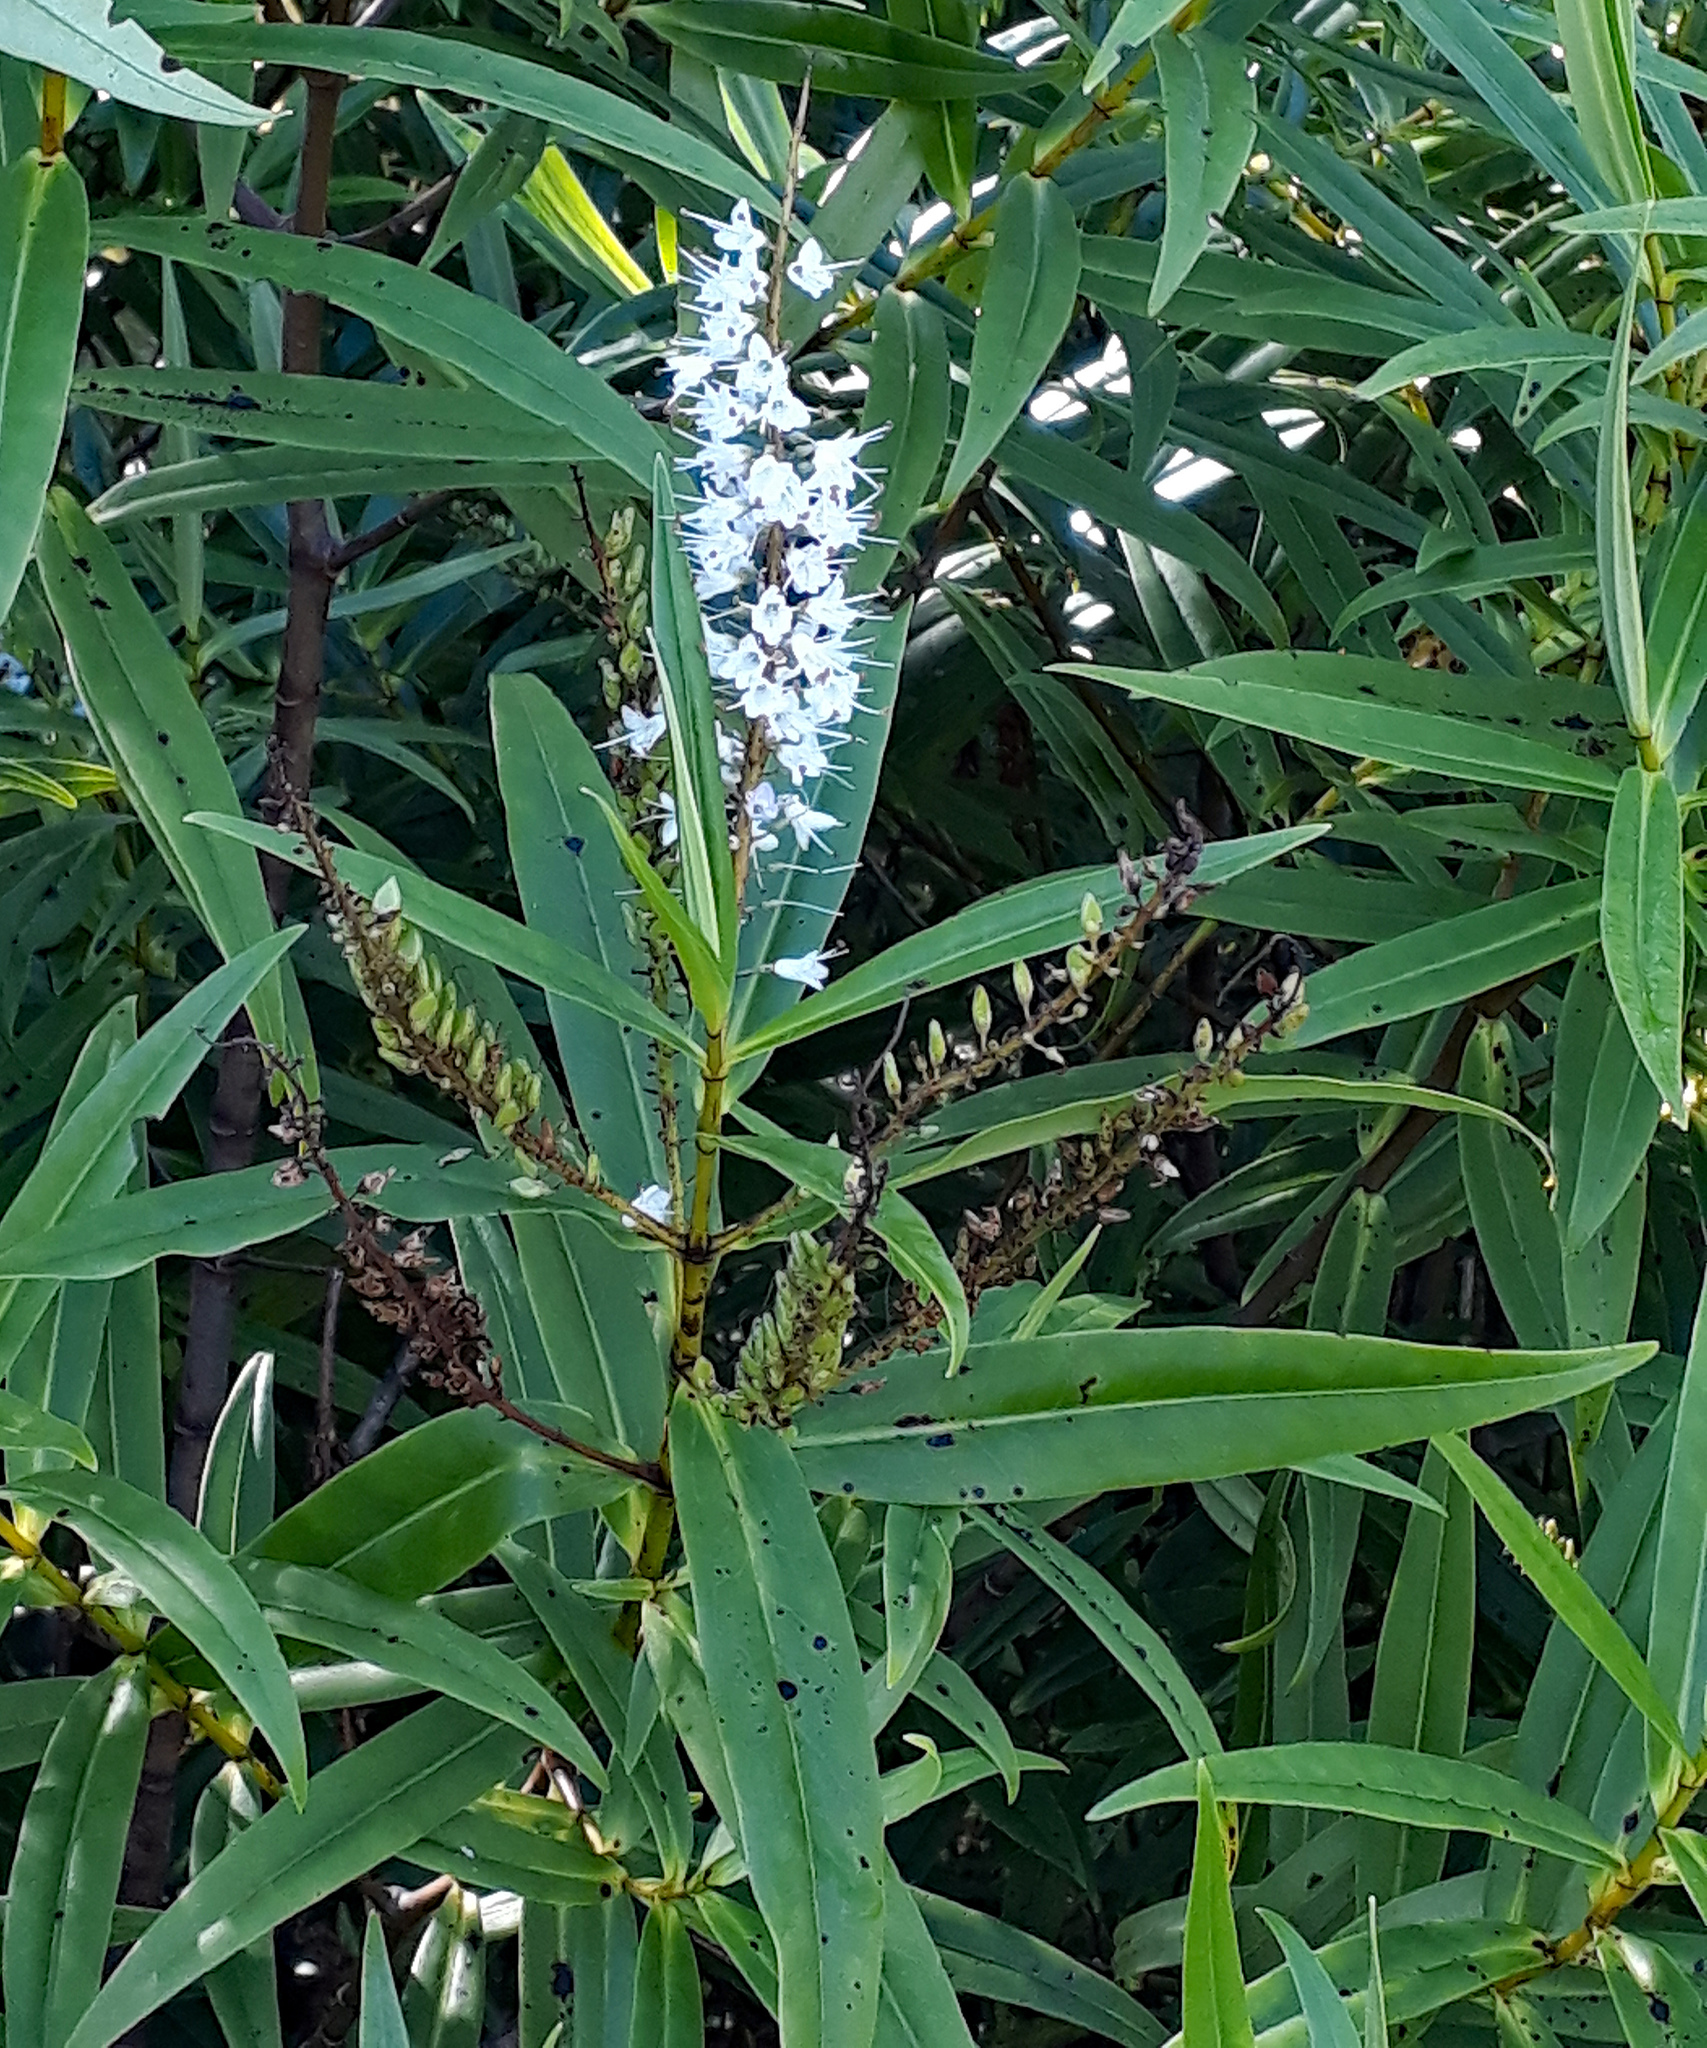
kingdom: Plantae
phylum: Tracheophyta
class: Magnoliopsida
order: Lamiales
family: Plantaginaceae
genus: Veronica
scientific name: Veronica macrocarpa
